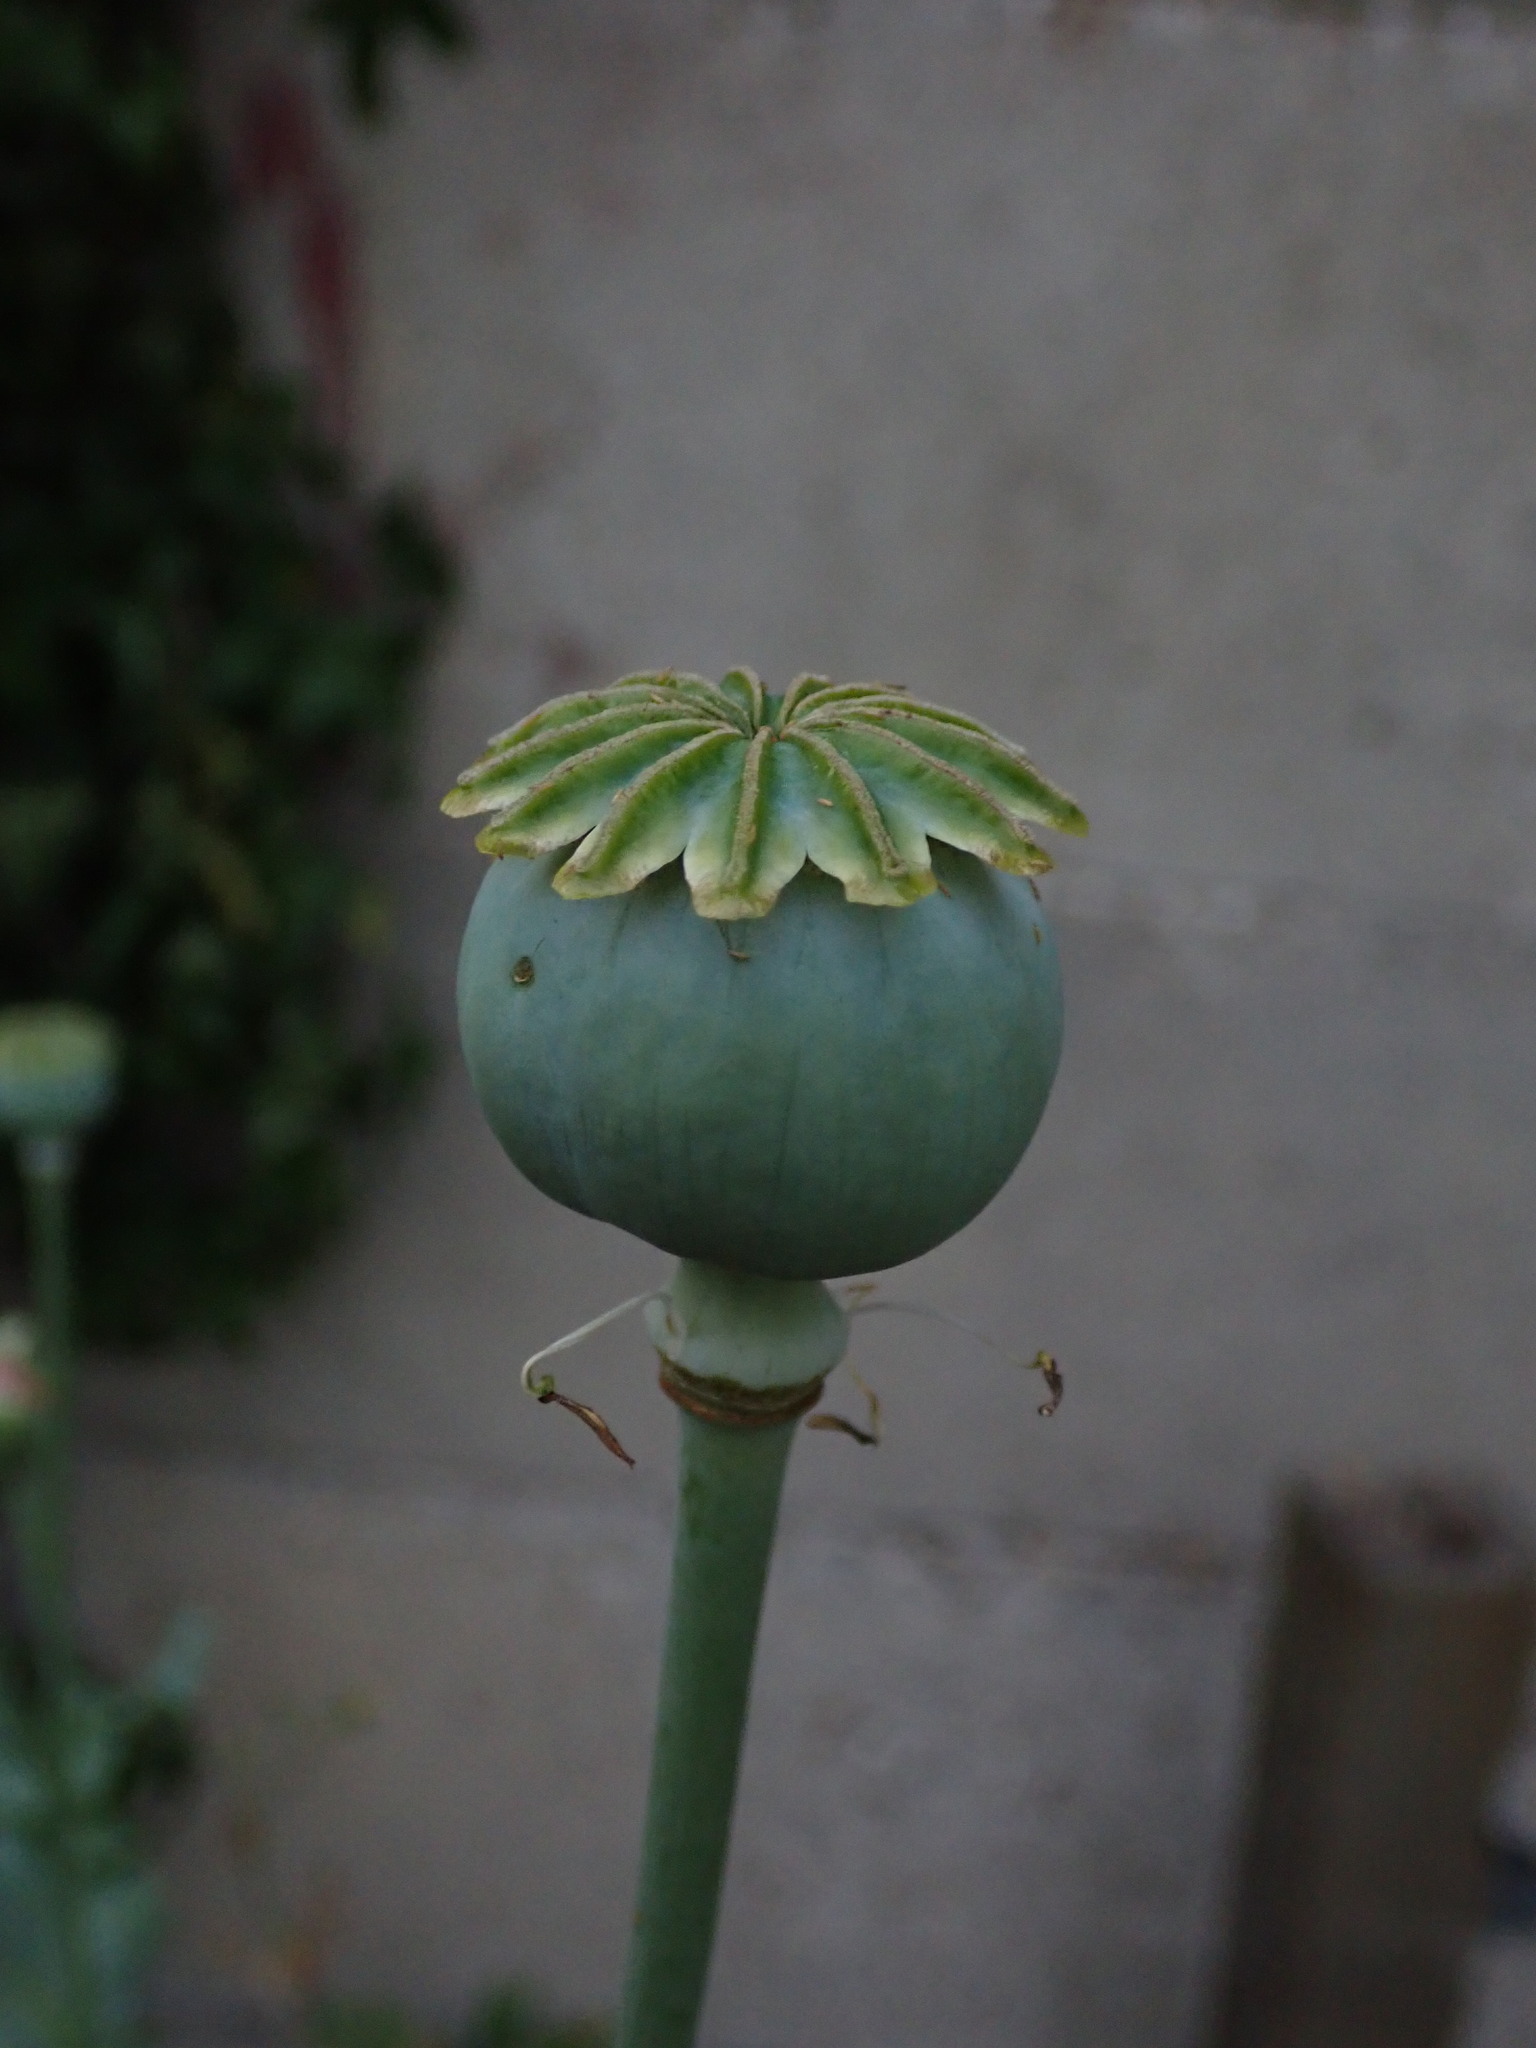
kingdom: Plantae
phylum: Tracheophyta
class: Magnoliopsida
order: Ranunculales
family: Papaveraceae
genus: Papaver
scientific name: Papaver somniferum
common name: Opium poppy
